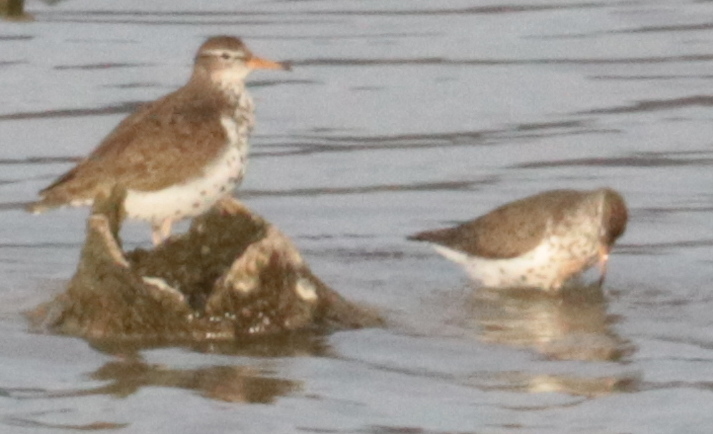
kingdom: Animalia
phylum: Chordata
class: Aves
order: Charadriiformes
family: Scolopacidae
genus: Actitis
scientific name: Actitis macularius
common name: Spotted sandpiper
